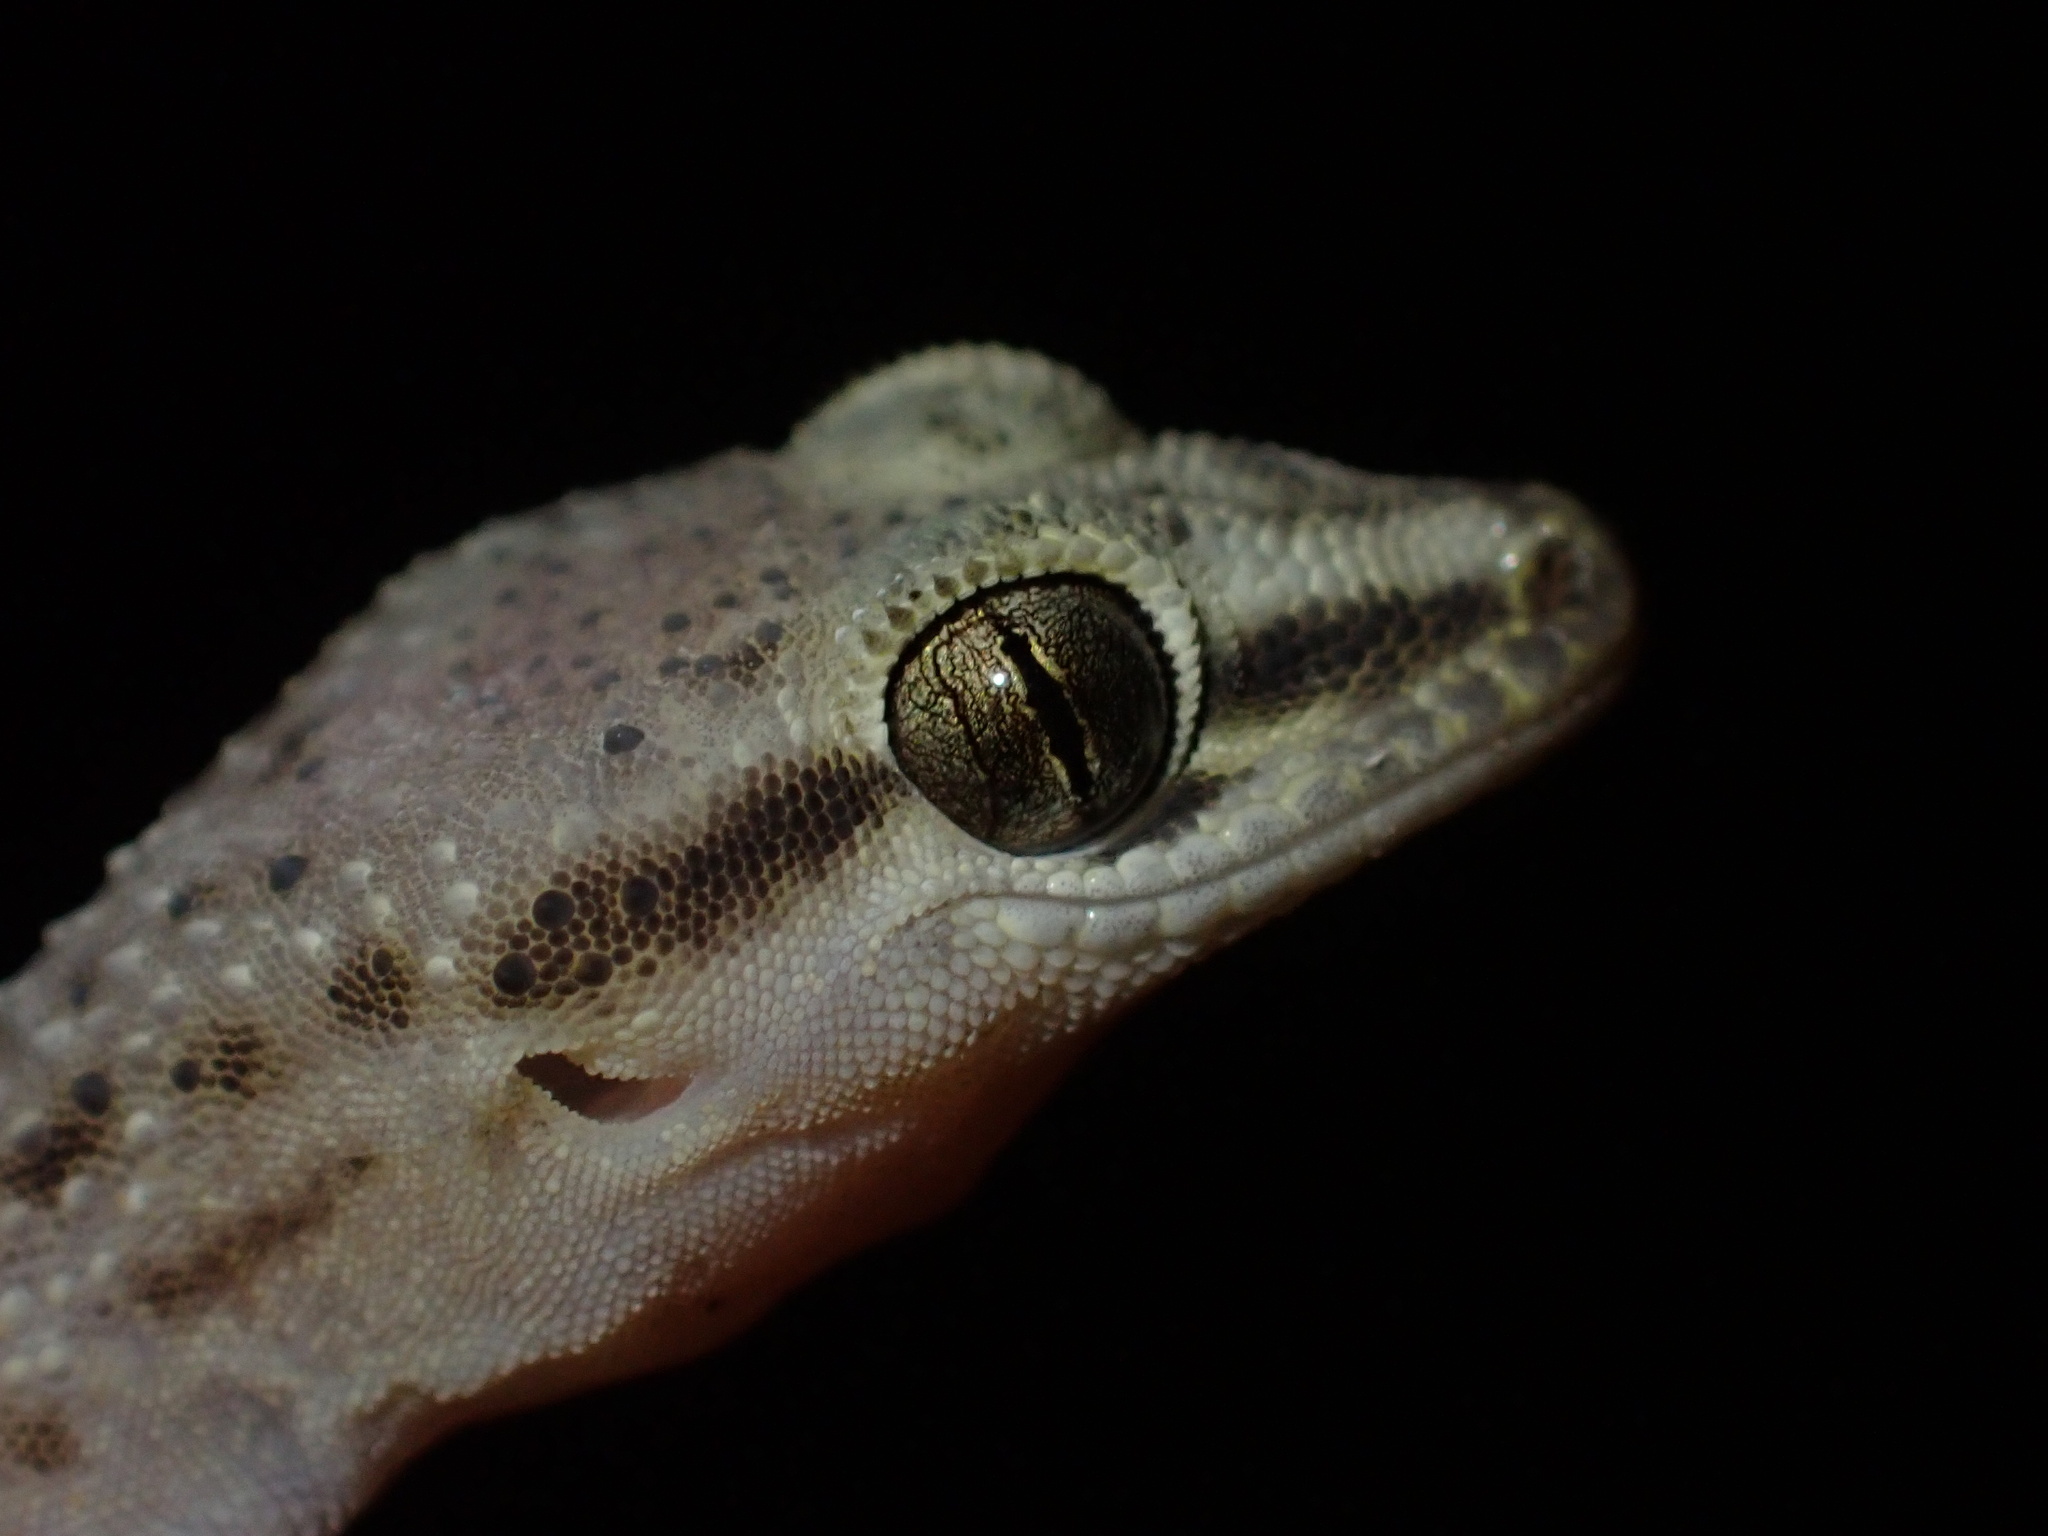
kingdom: Animalia
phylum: Chordata
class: Squamata
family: Gekkonidae
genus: Hemidactylus
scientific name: Hemidactylus persicus
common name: Persian gecko
